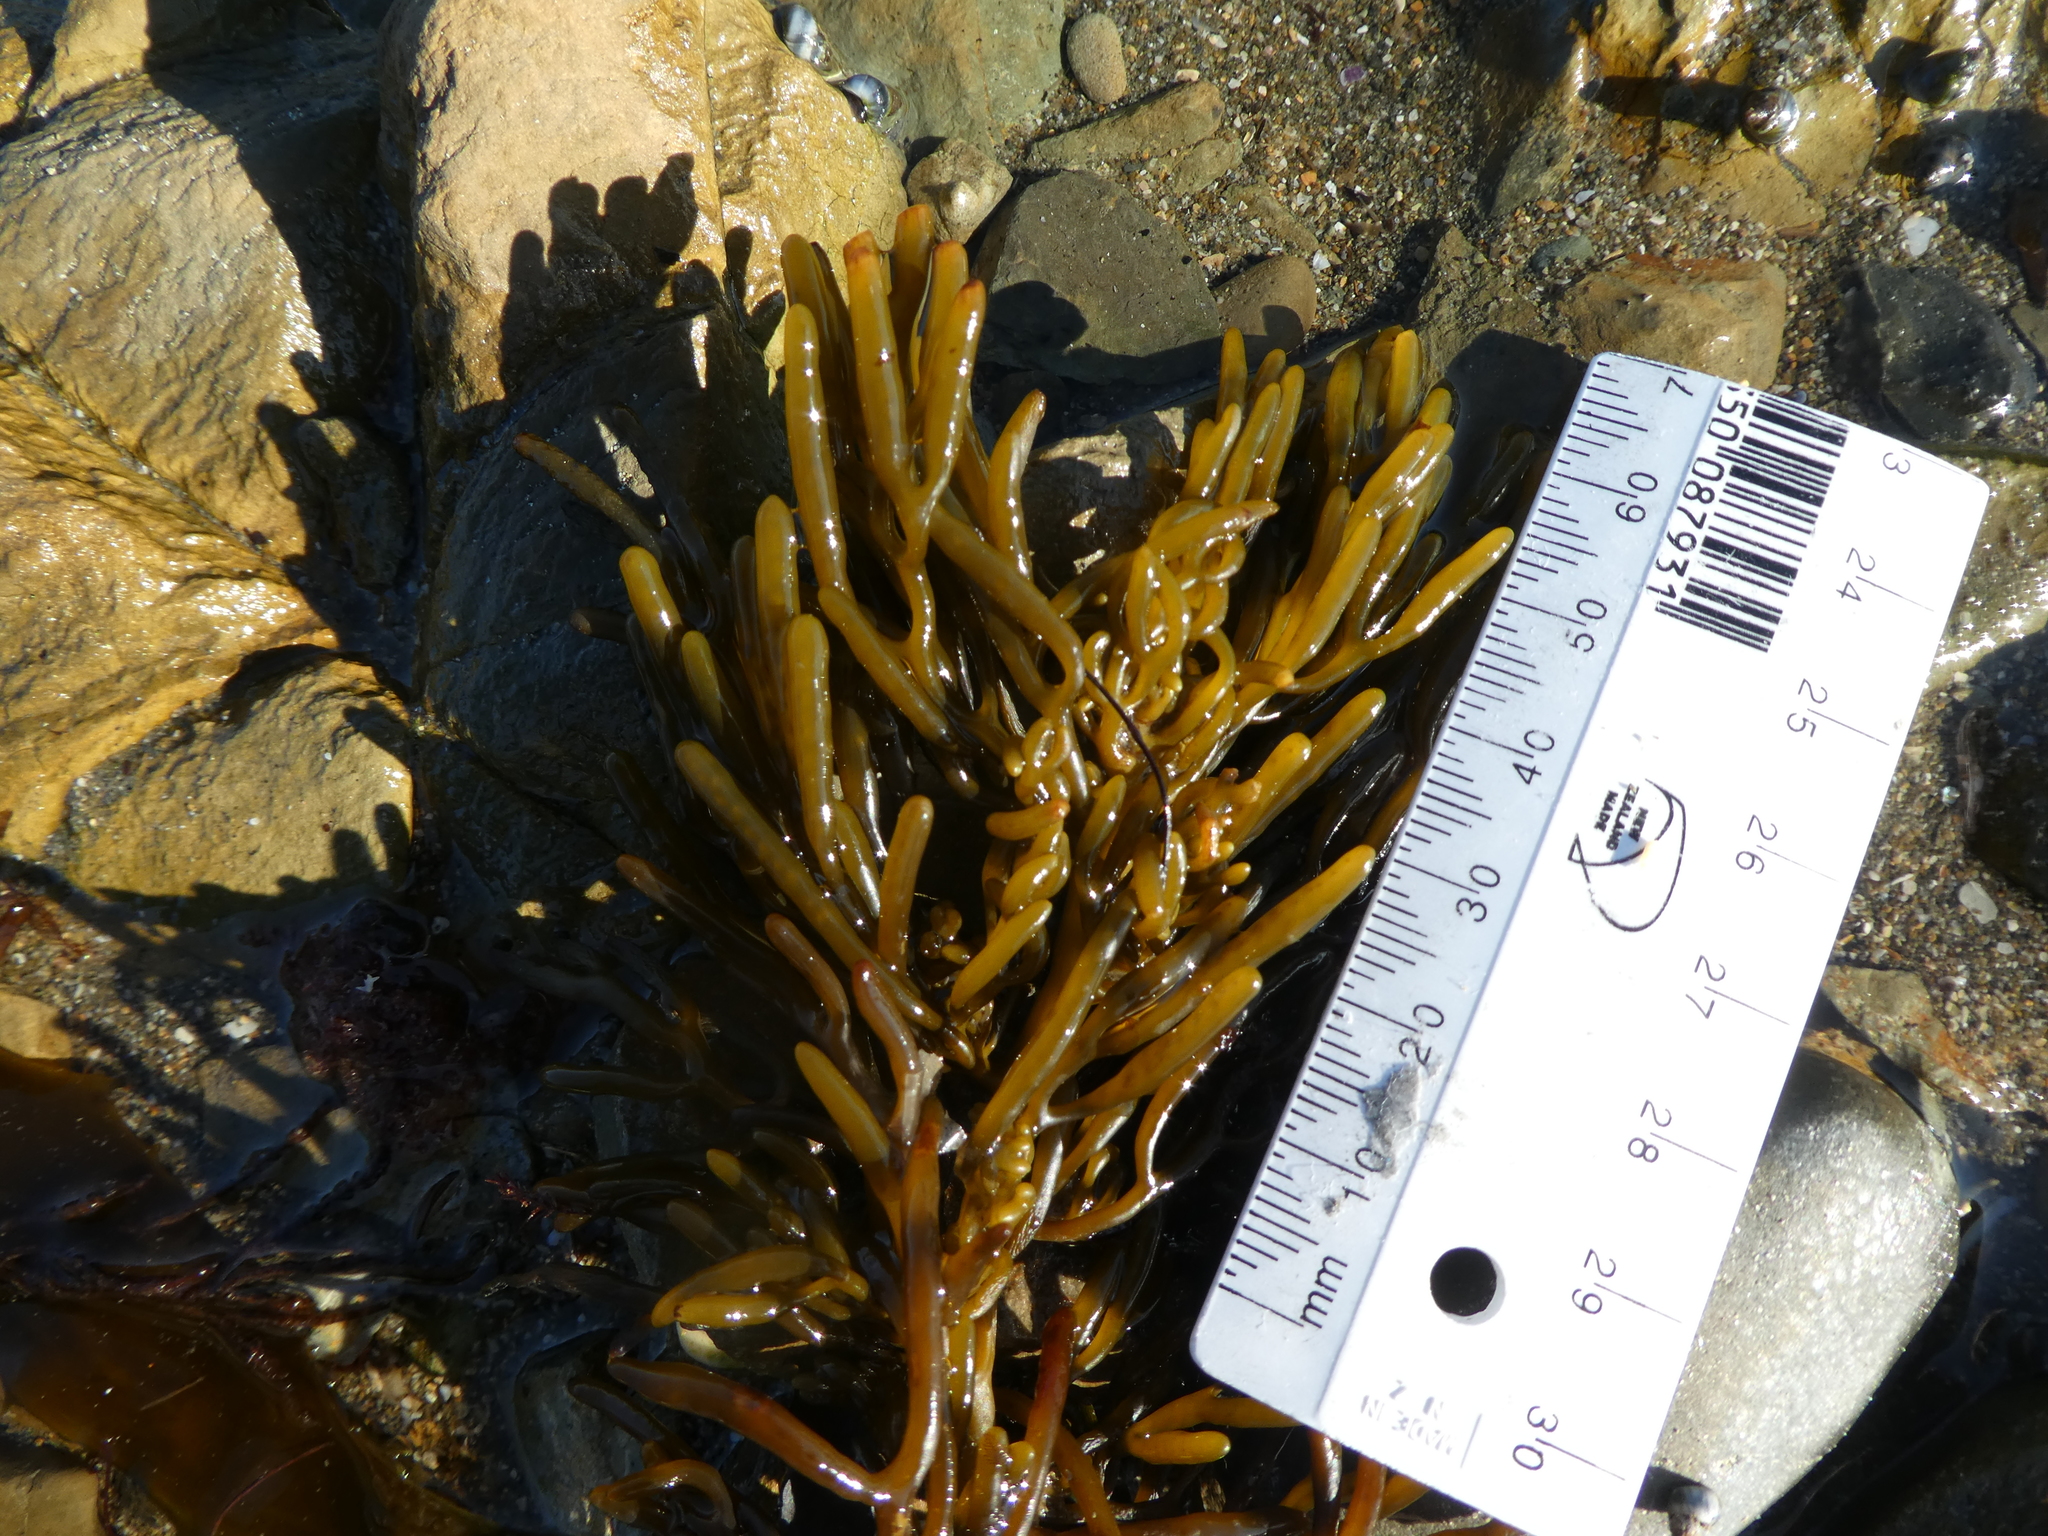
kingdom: Chromista
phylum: Ochrophyta
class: Phaeophyceae
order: Fucales
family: Sargassaceae
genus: Cystophora
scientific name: Cystophora torulosa
